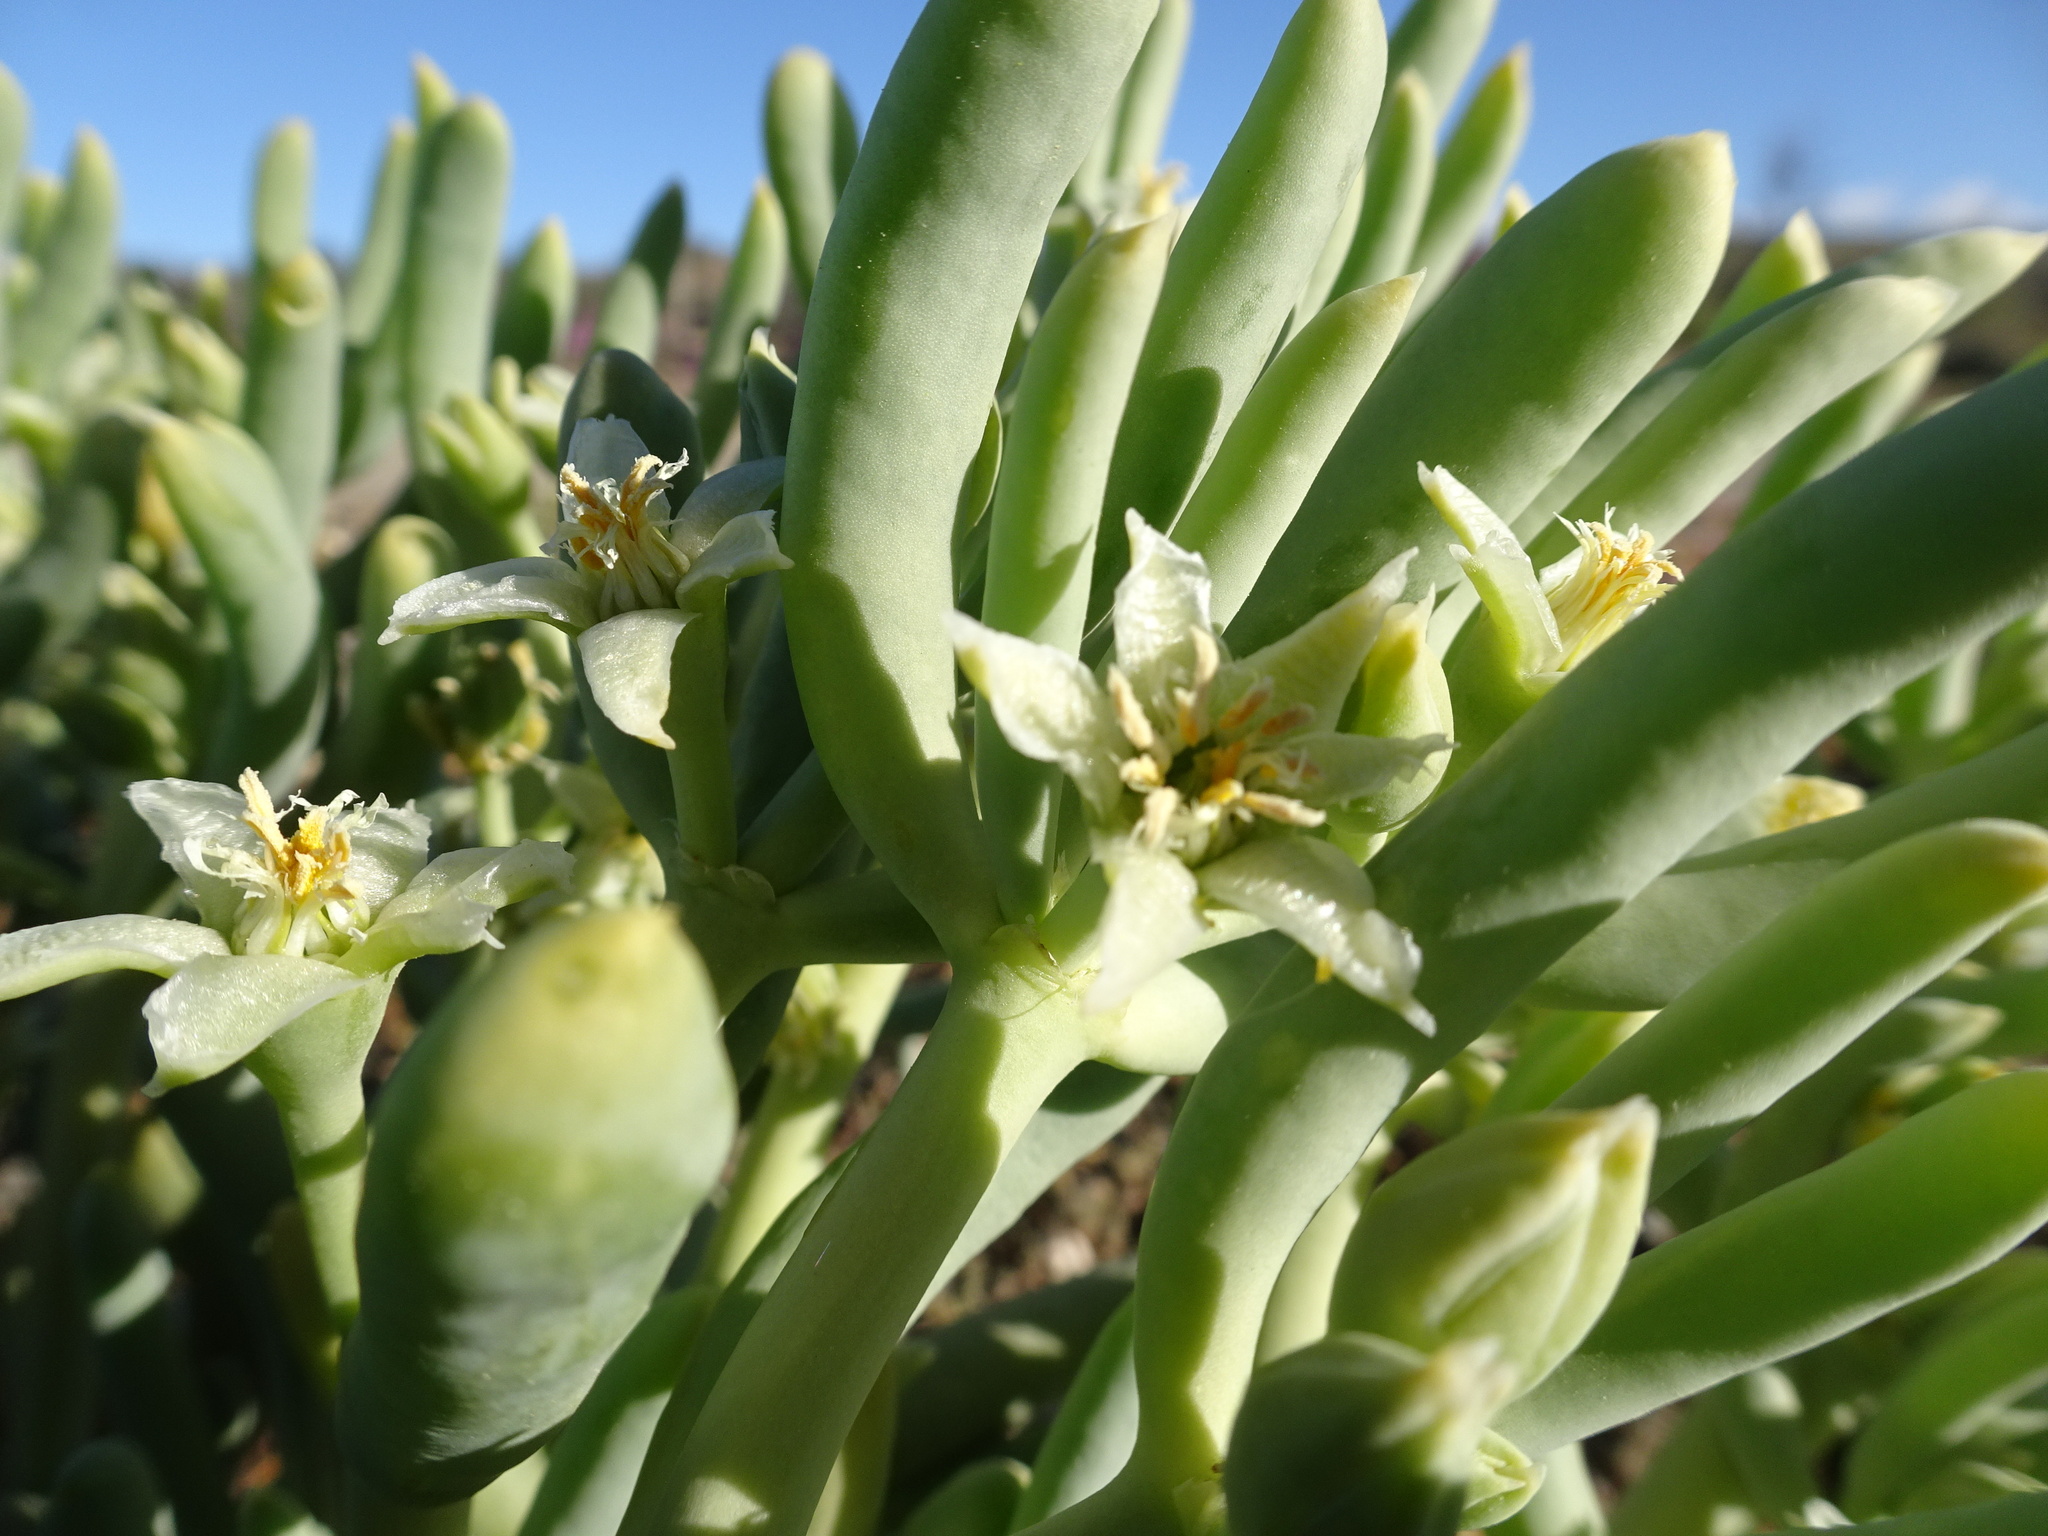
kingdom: Plantae
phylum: Tracheophyta
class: Magnoliopsida
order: Zygophyllales
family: Zygophyllaceae
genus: Augea
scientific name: Augea capensis
